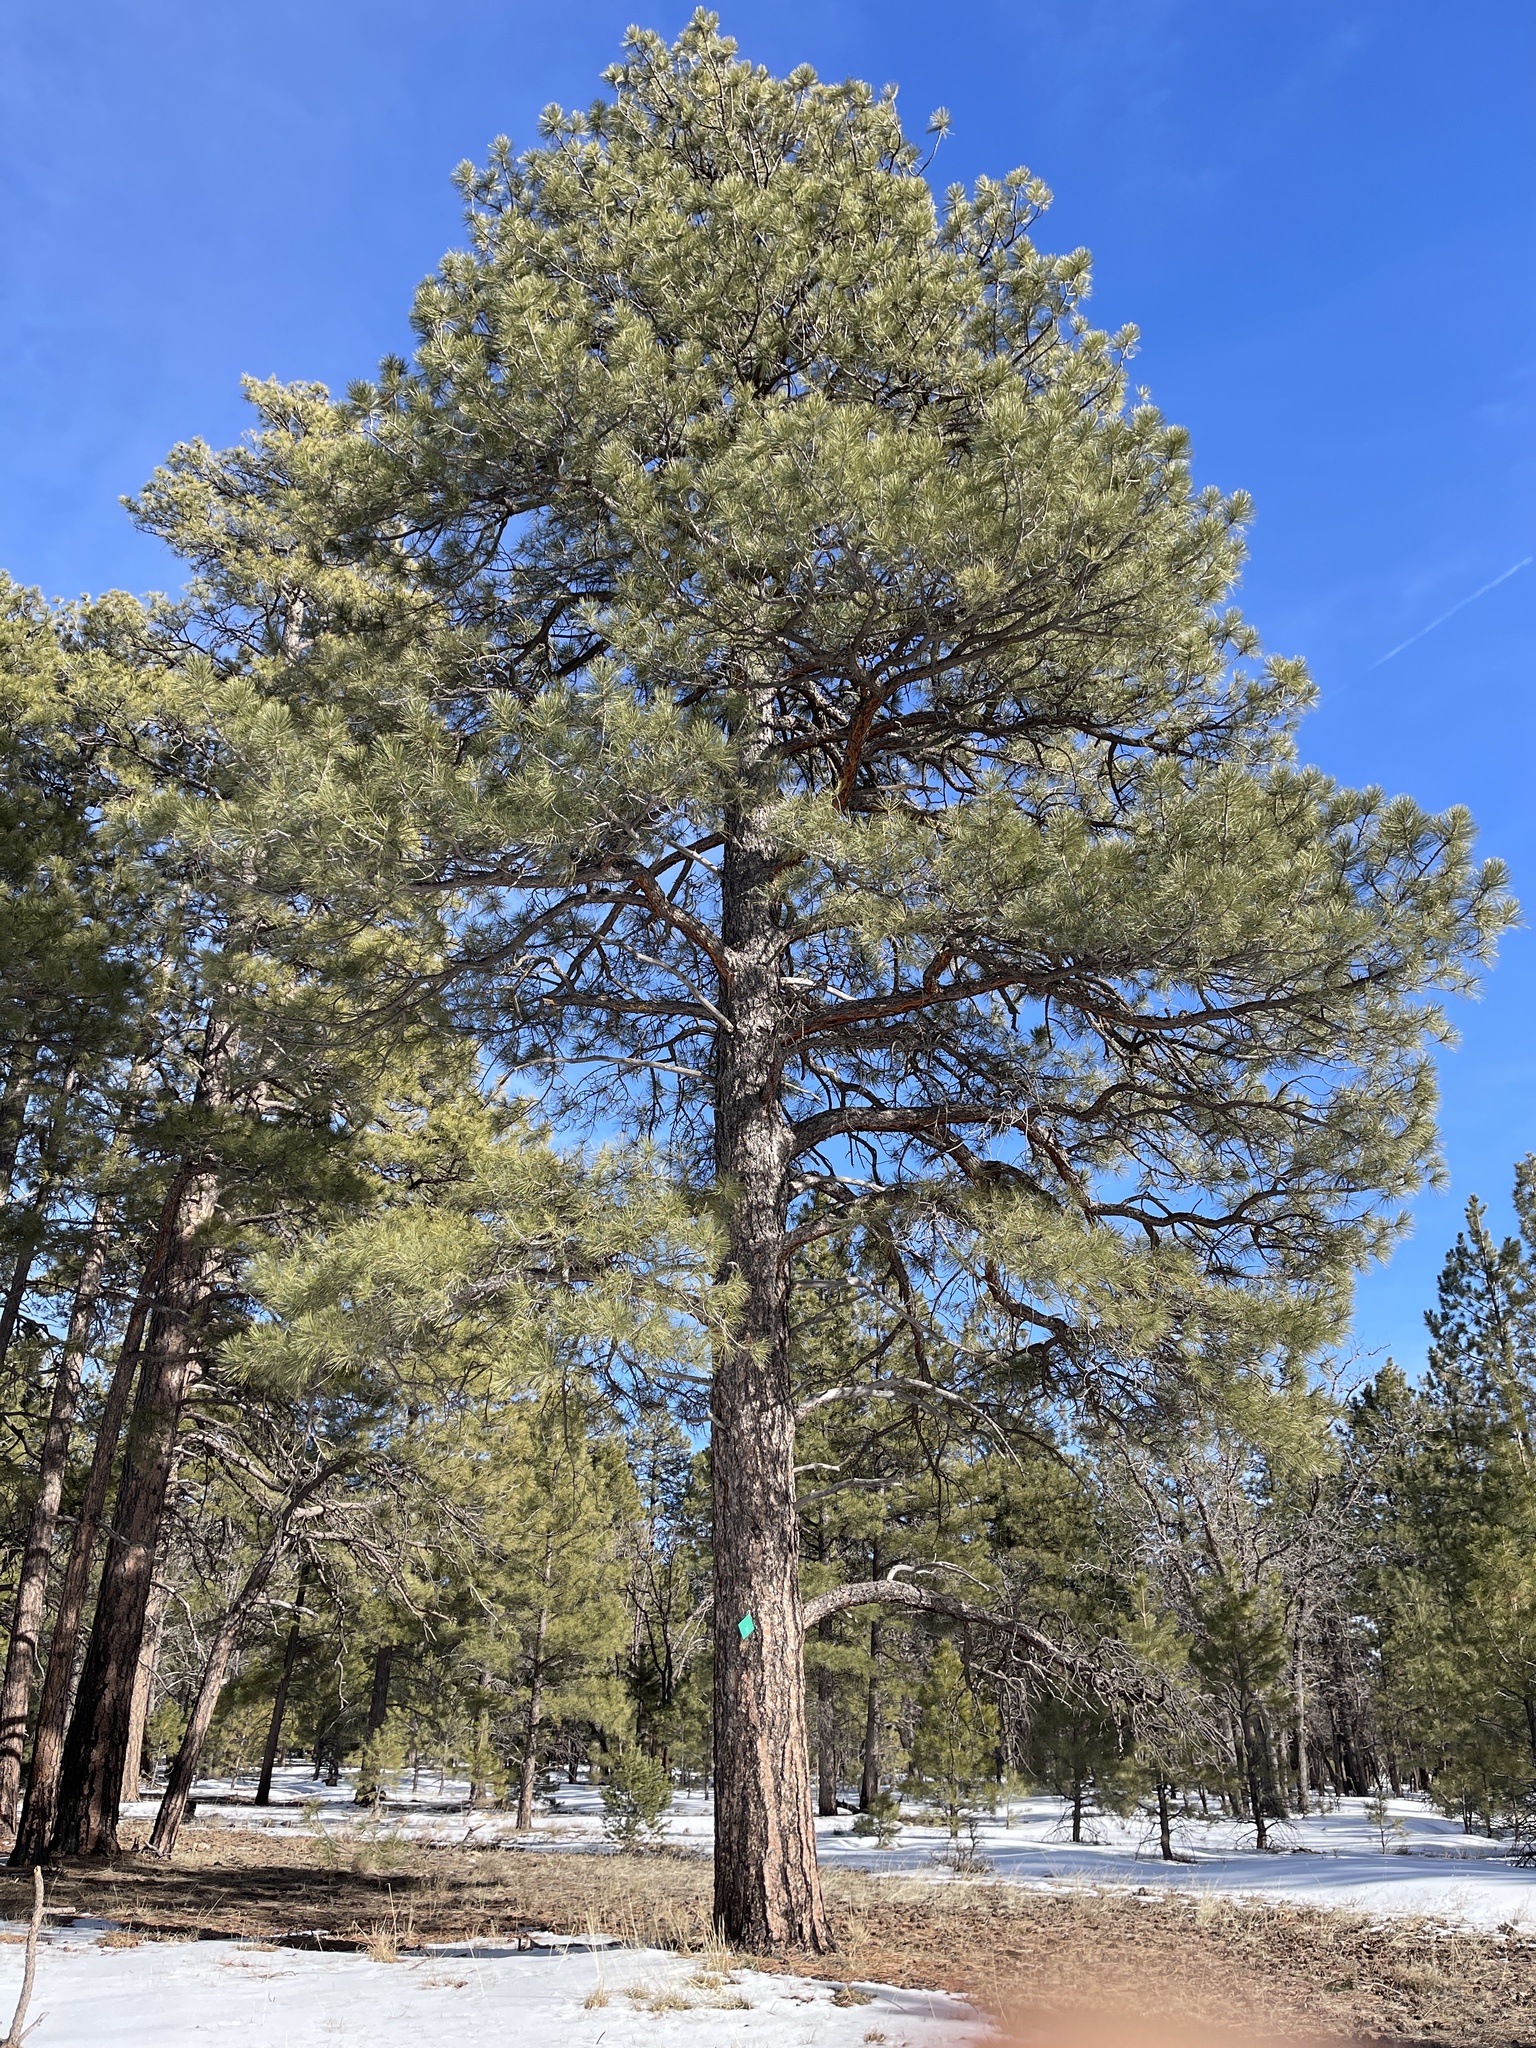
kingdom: Plantae
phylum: Tracheophyta
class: Pinopsida
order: Pinales
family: Pinaceae
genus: Pinus
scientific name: Pinus ponderosa
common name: Western yellow-pine
